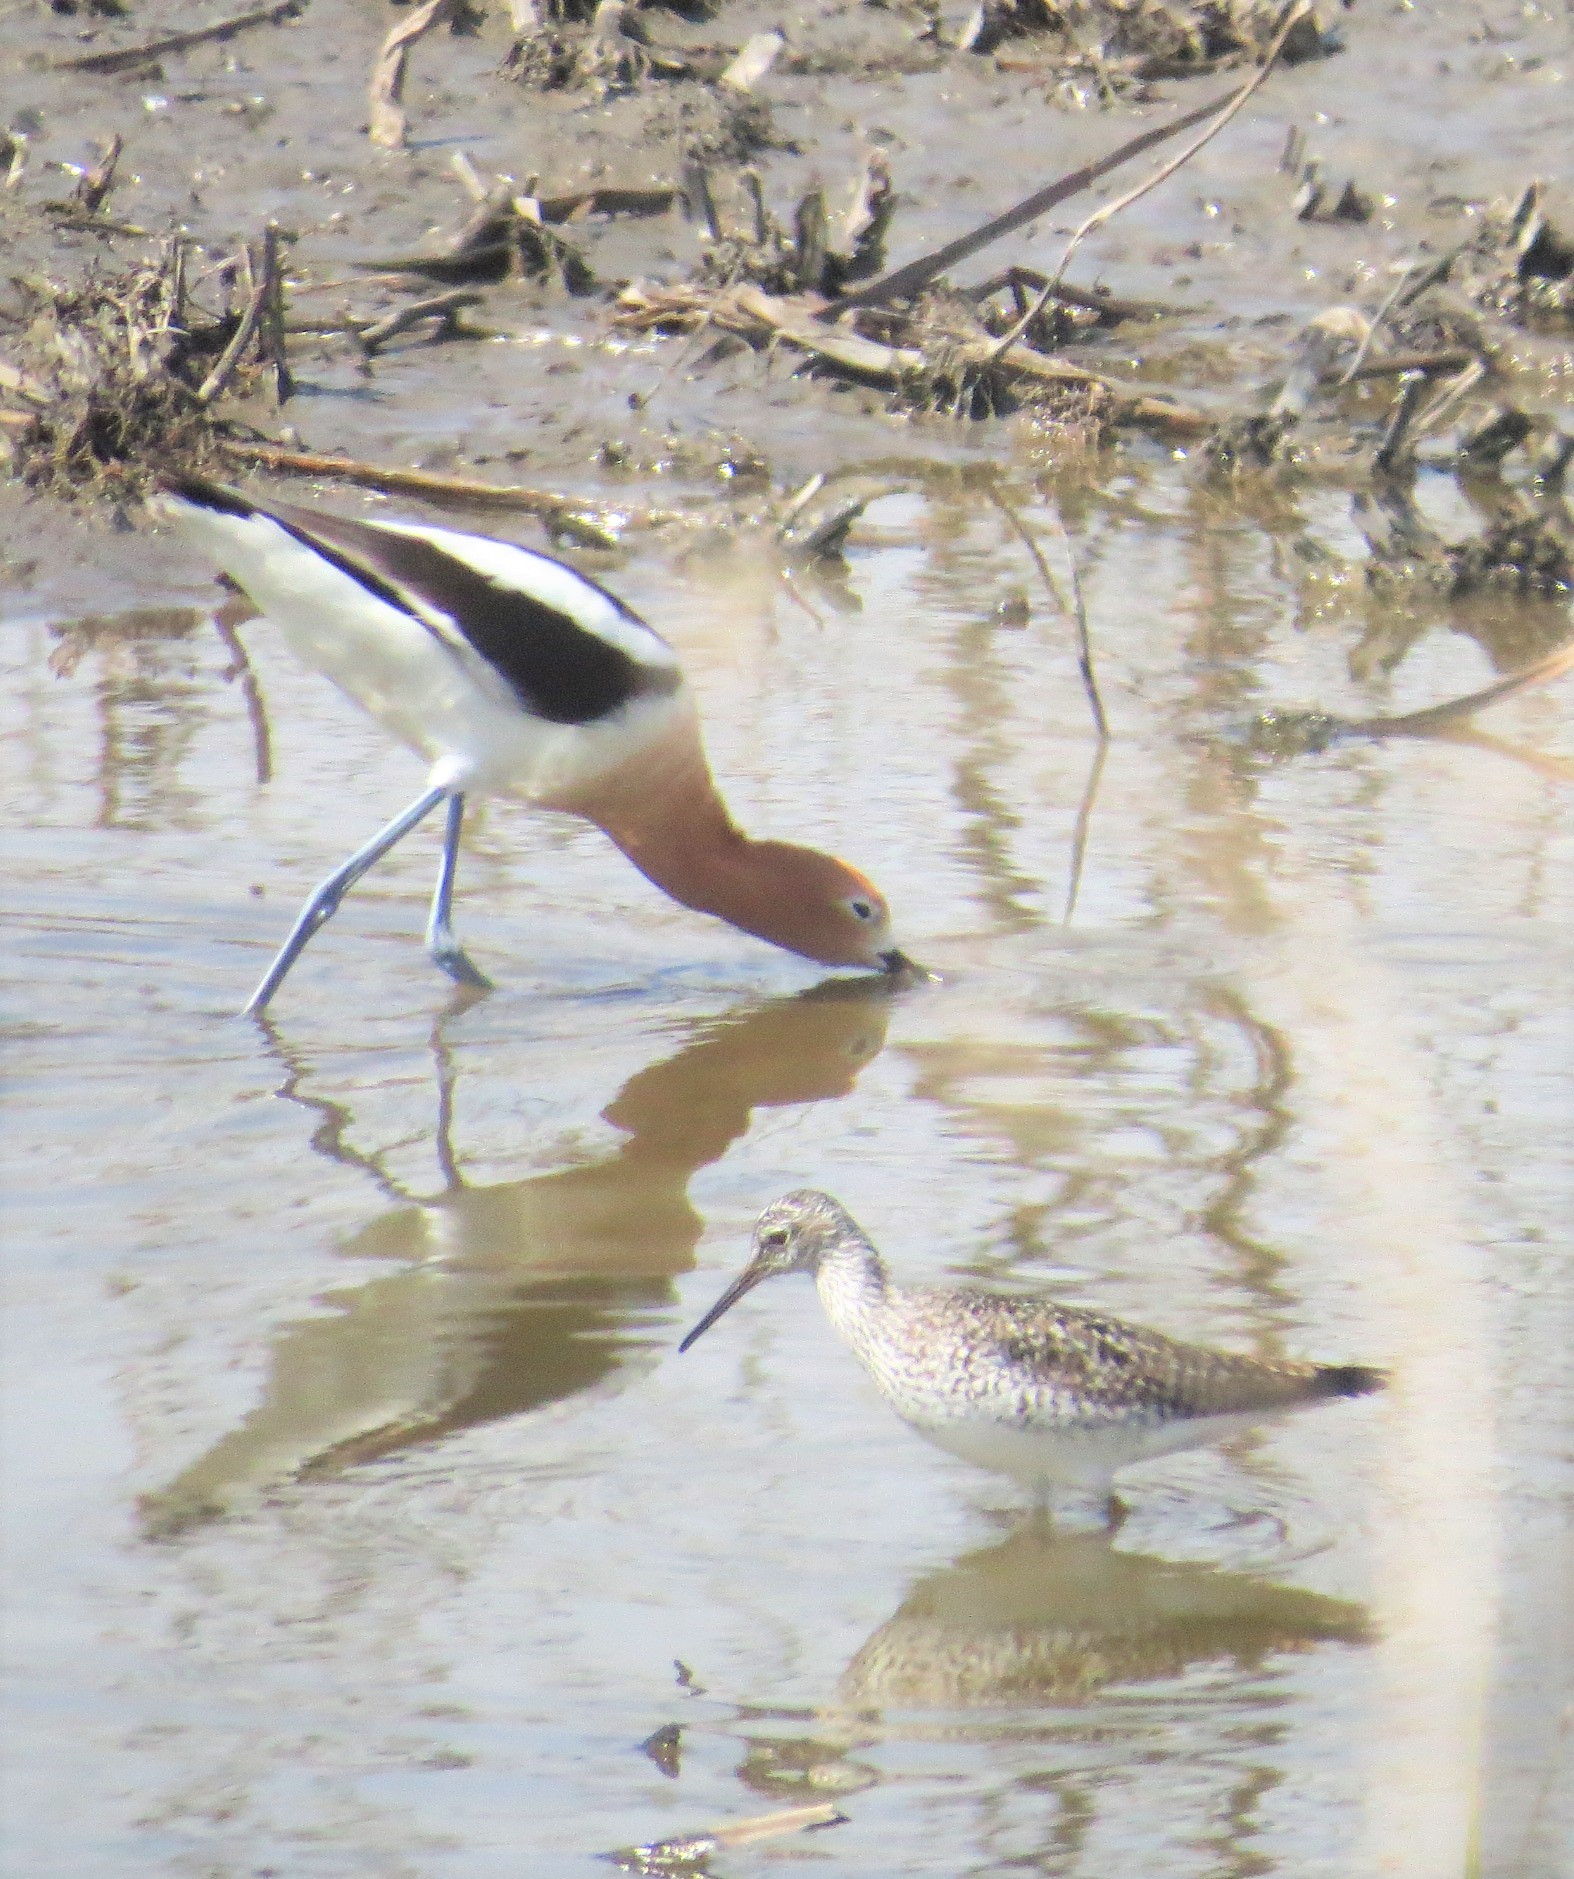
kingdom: Animalia
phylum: Chordata
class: Aves
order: Charadriiformes
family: Recurvirostridae
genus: Recurvirostra
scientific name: Recurvirostra americana
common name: American avocet
